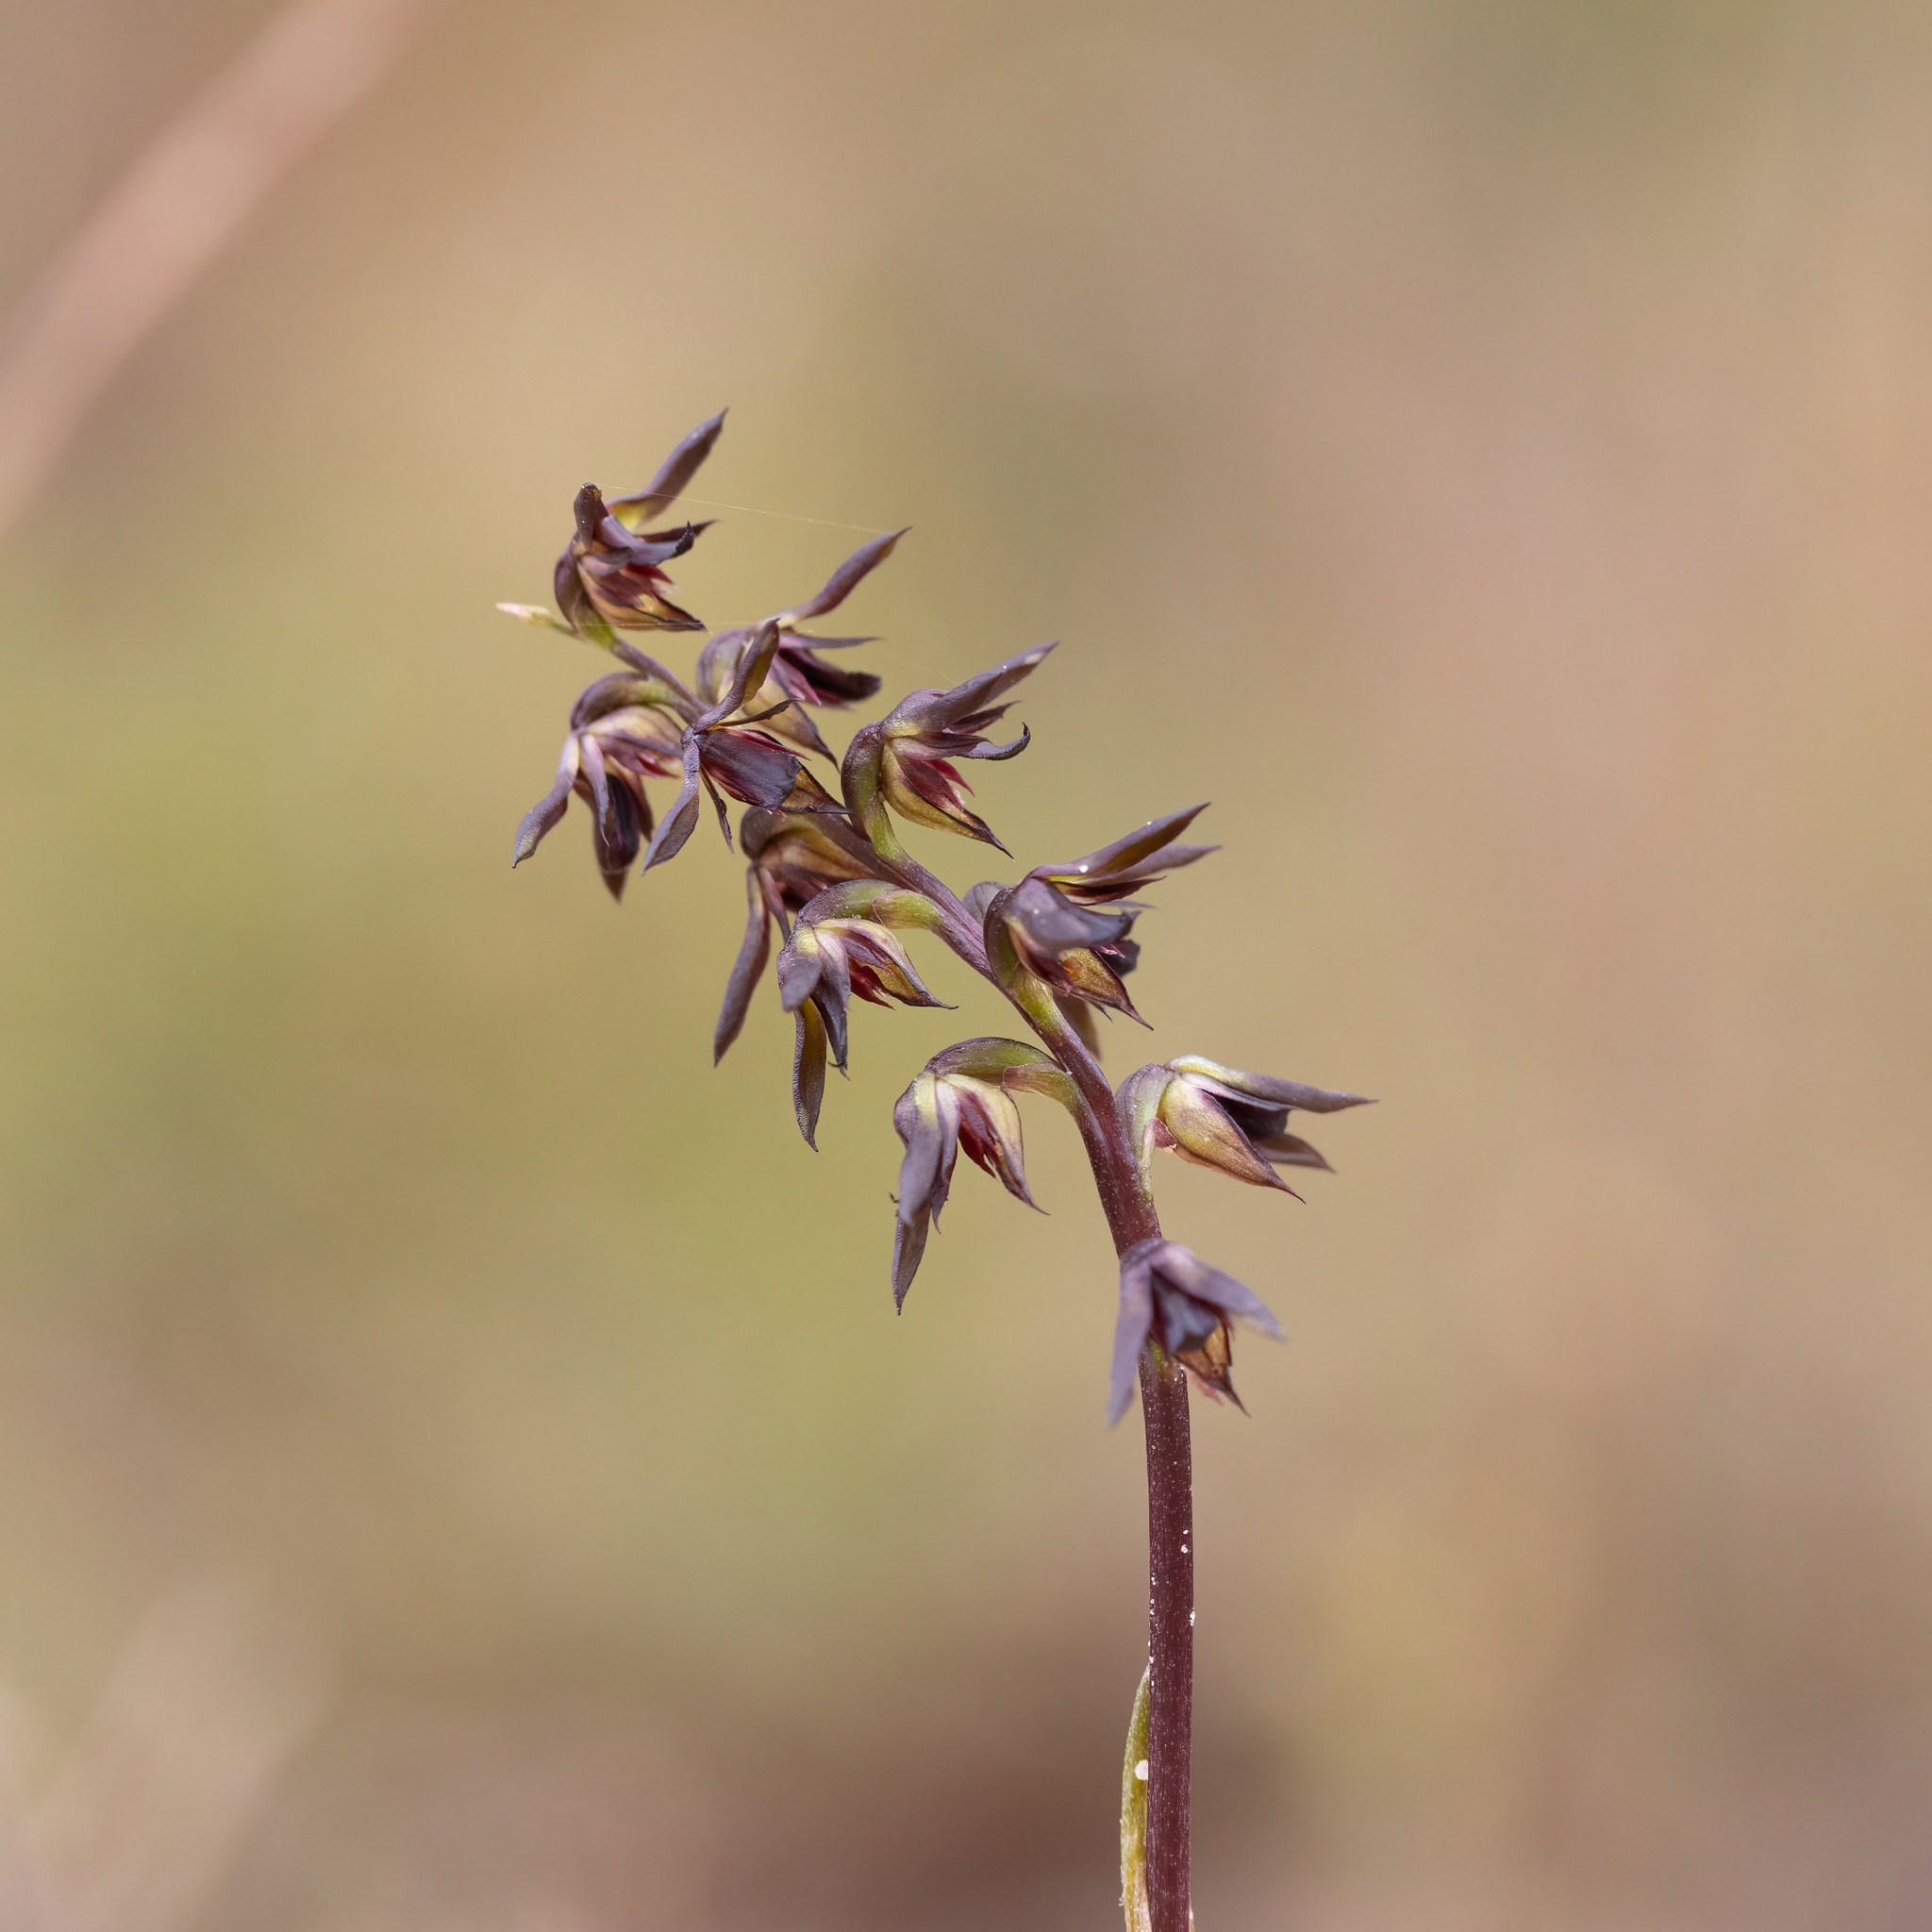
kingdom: Plantae
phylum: Tracheophyta
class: Liliopsida
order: Asparagales
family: Orchidaceae
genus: Genoplesium
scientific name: Genoplesium rufum
